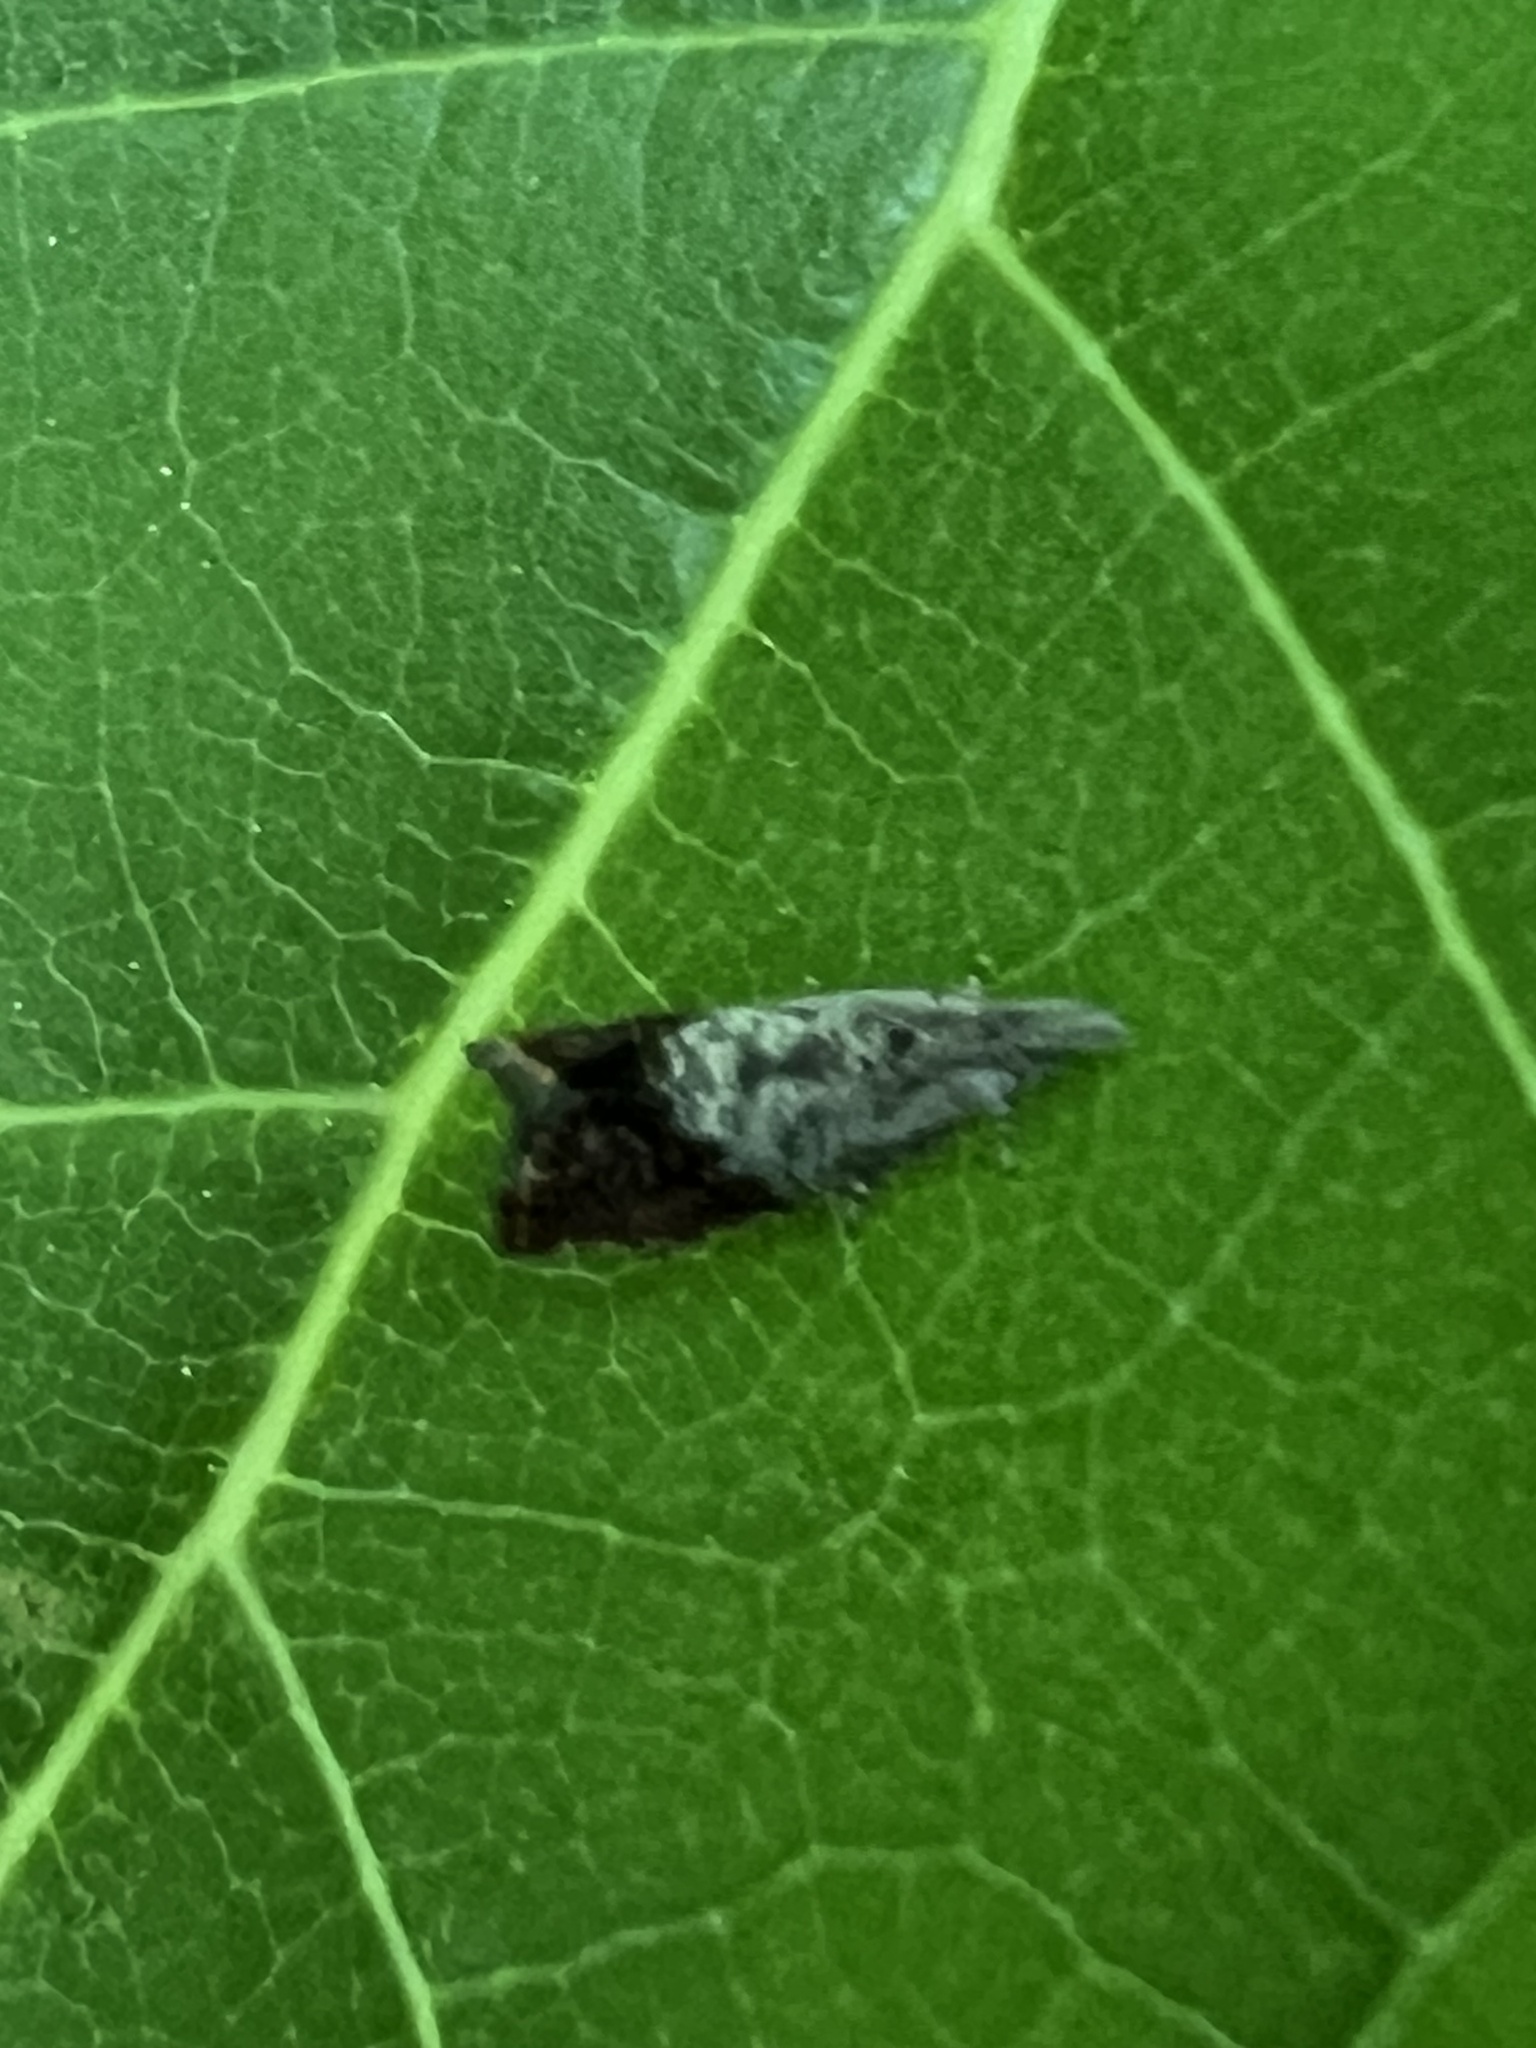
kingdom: Animalia
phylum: Arthropoda
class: Insecta
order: Lepidoptera
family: Tortricidae
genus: Talponia
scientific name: Talponia plummeriana
